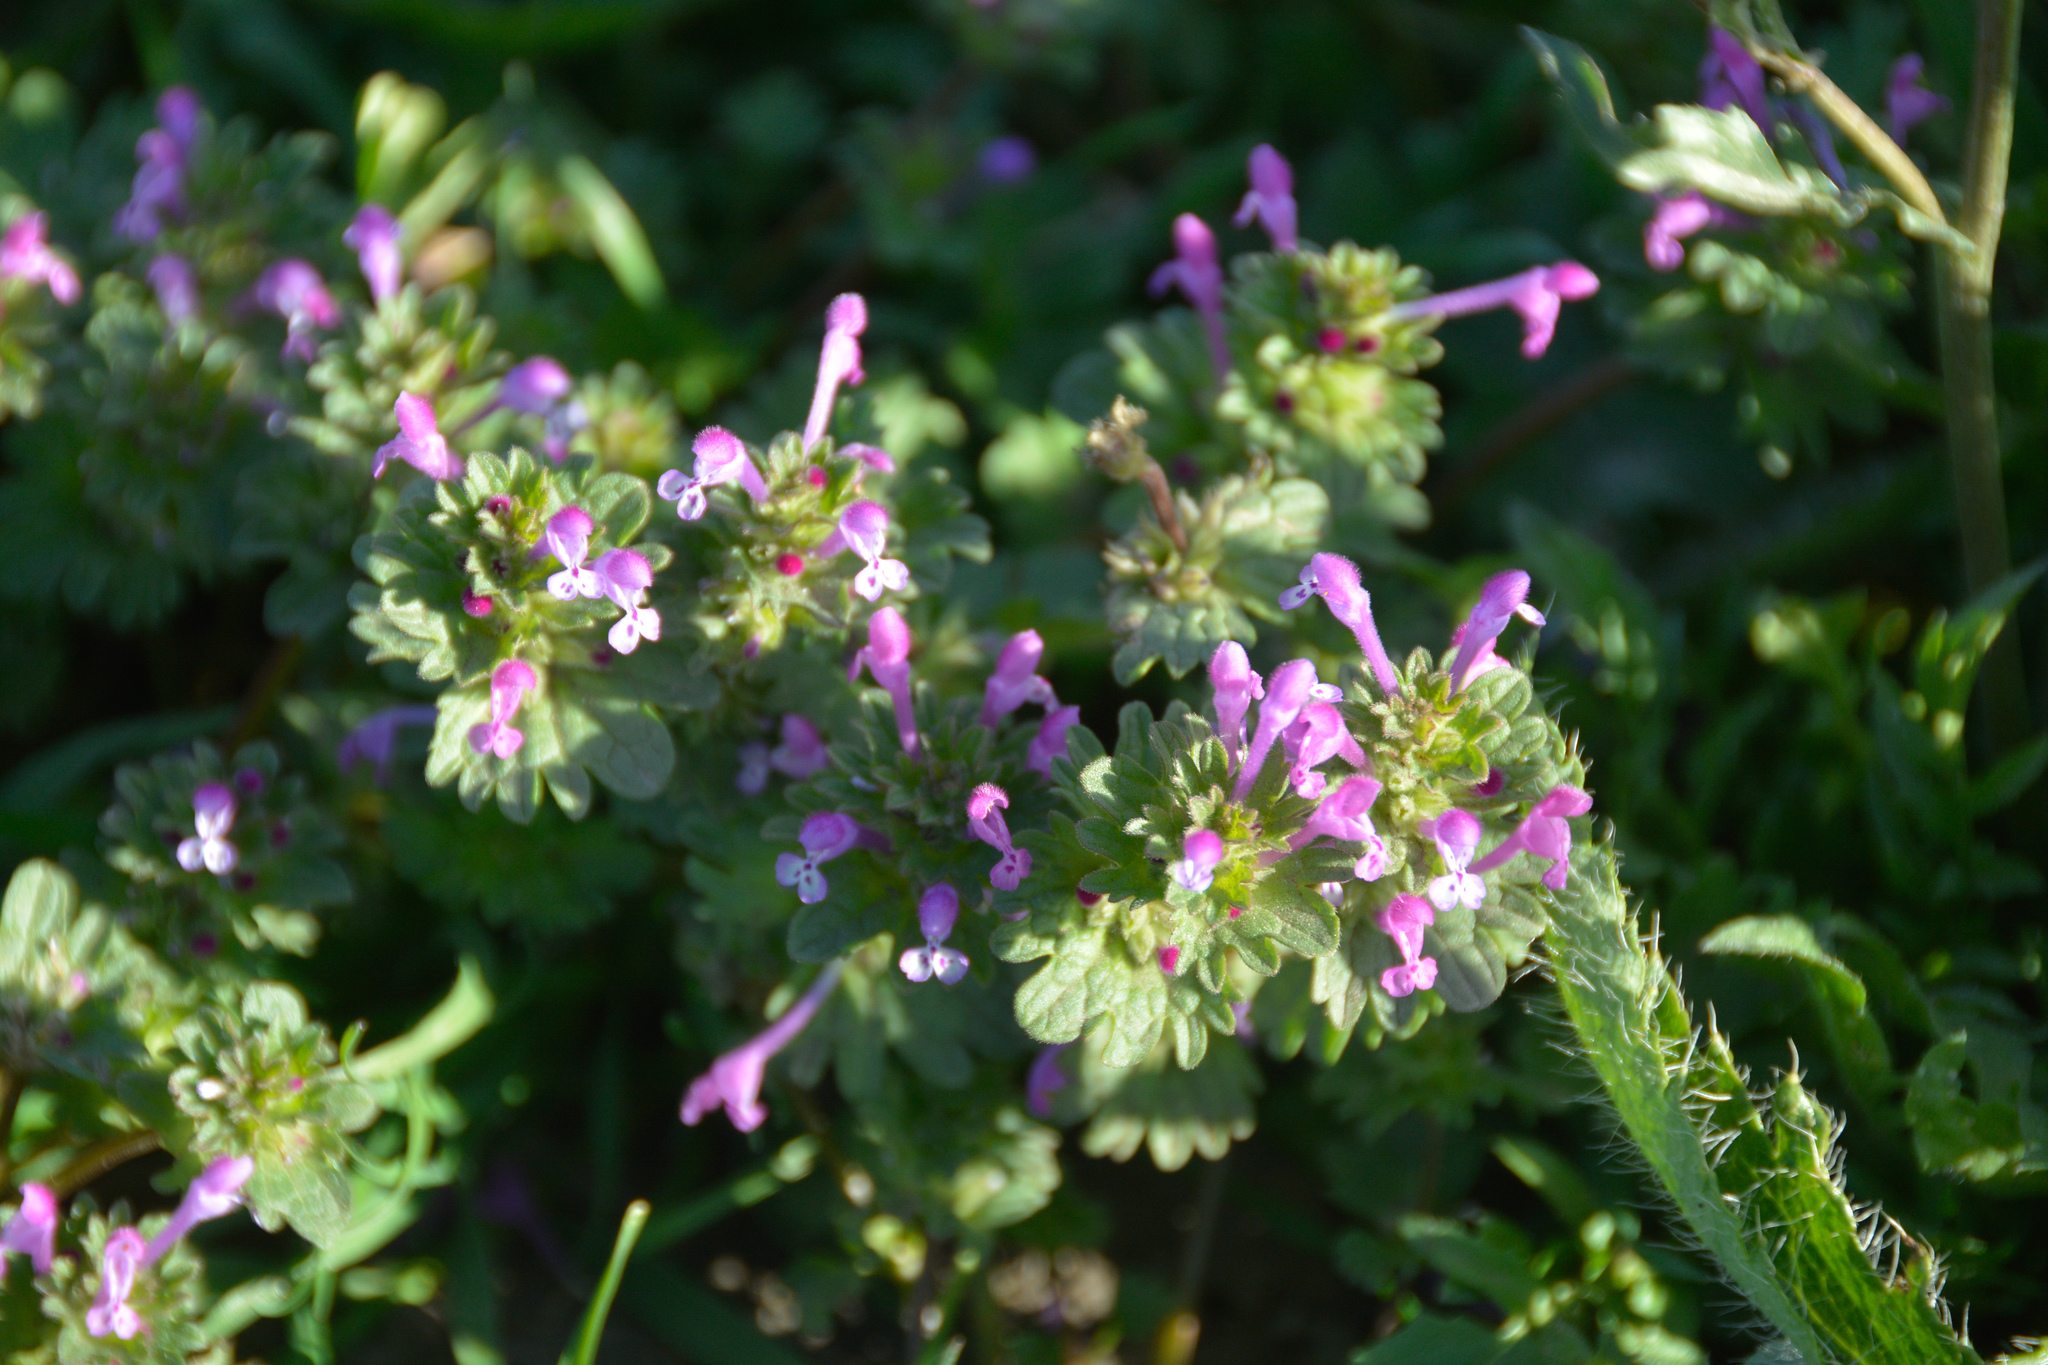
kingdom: Plantae
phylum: Tracheophyta
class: Magnoliopsida
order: Lamiales
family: Lamiaceae
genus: Lamium
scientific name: Lamium amplexicaule
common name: Henbit dead-nettle
